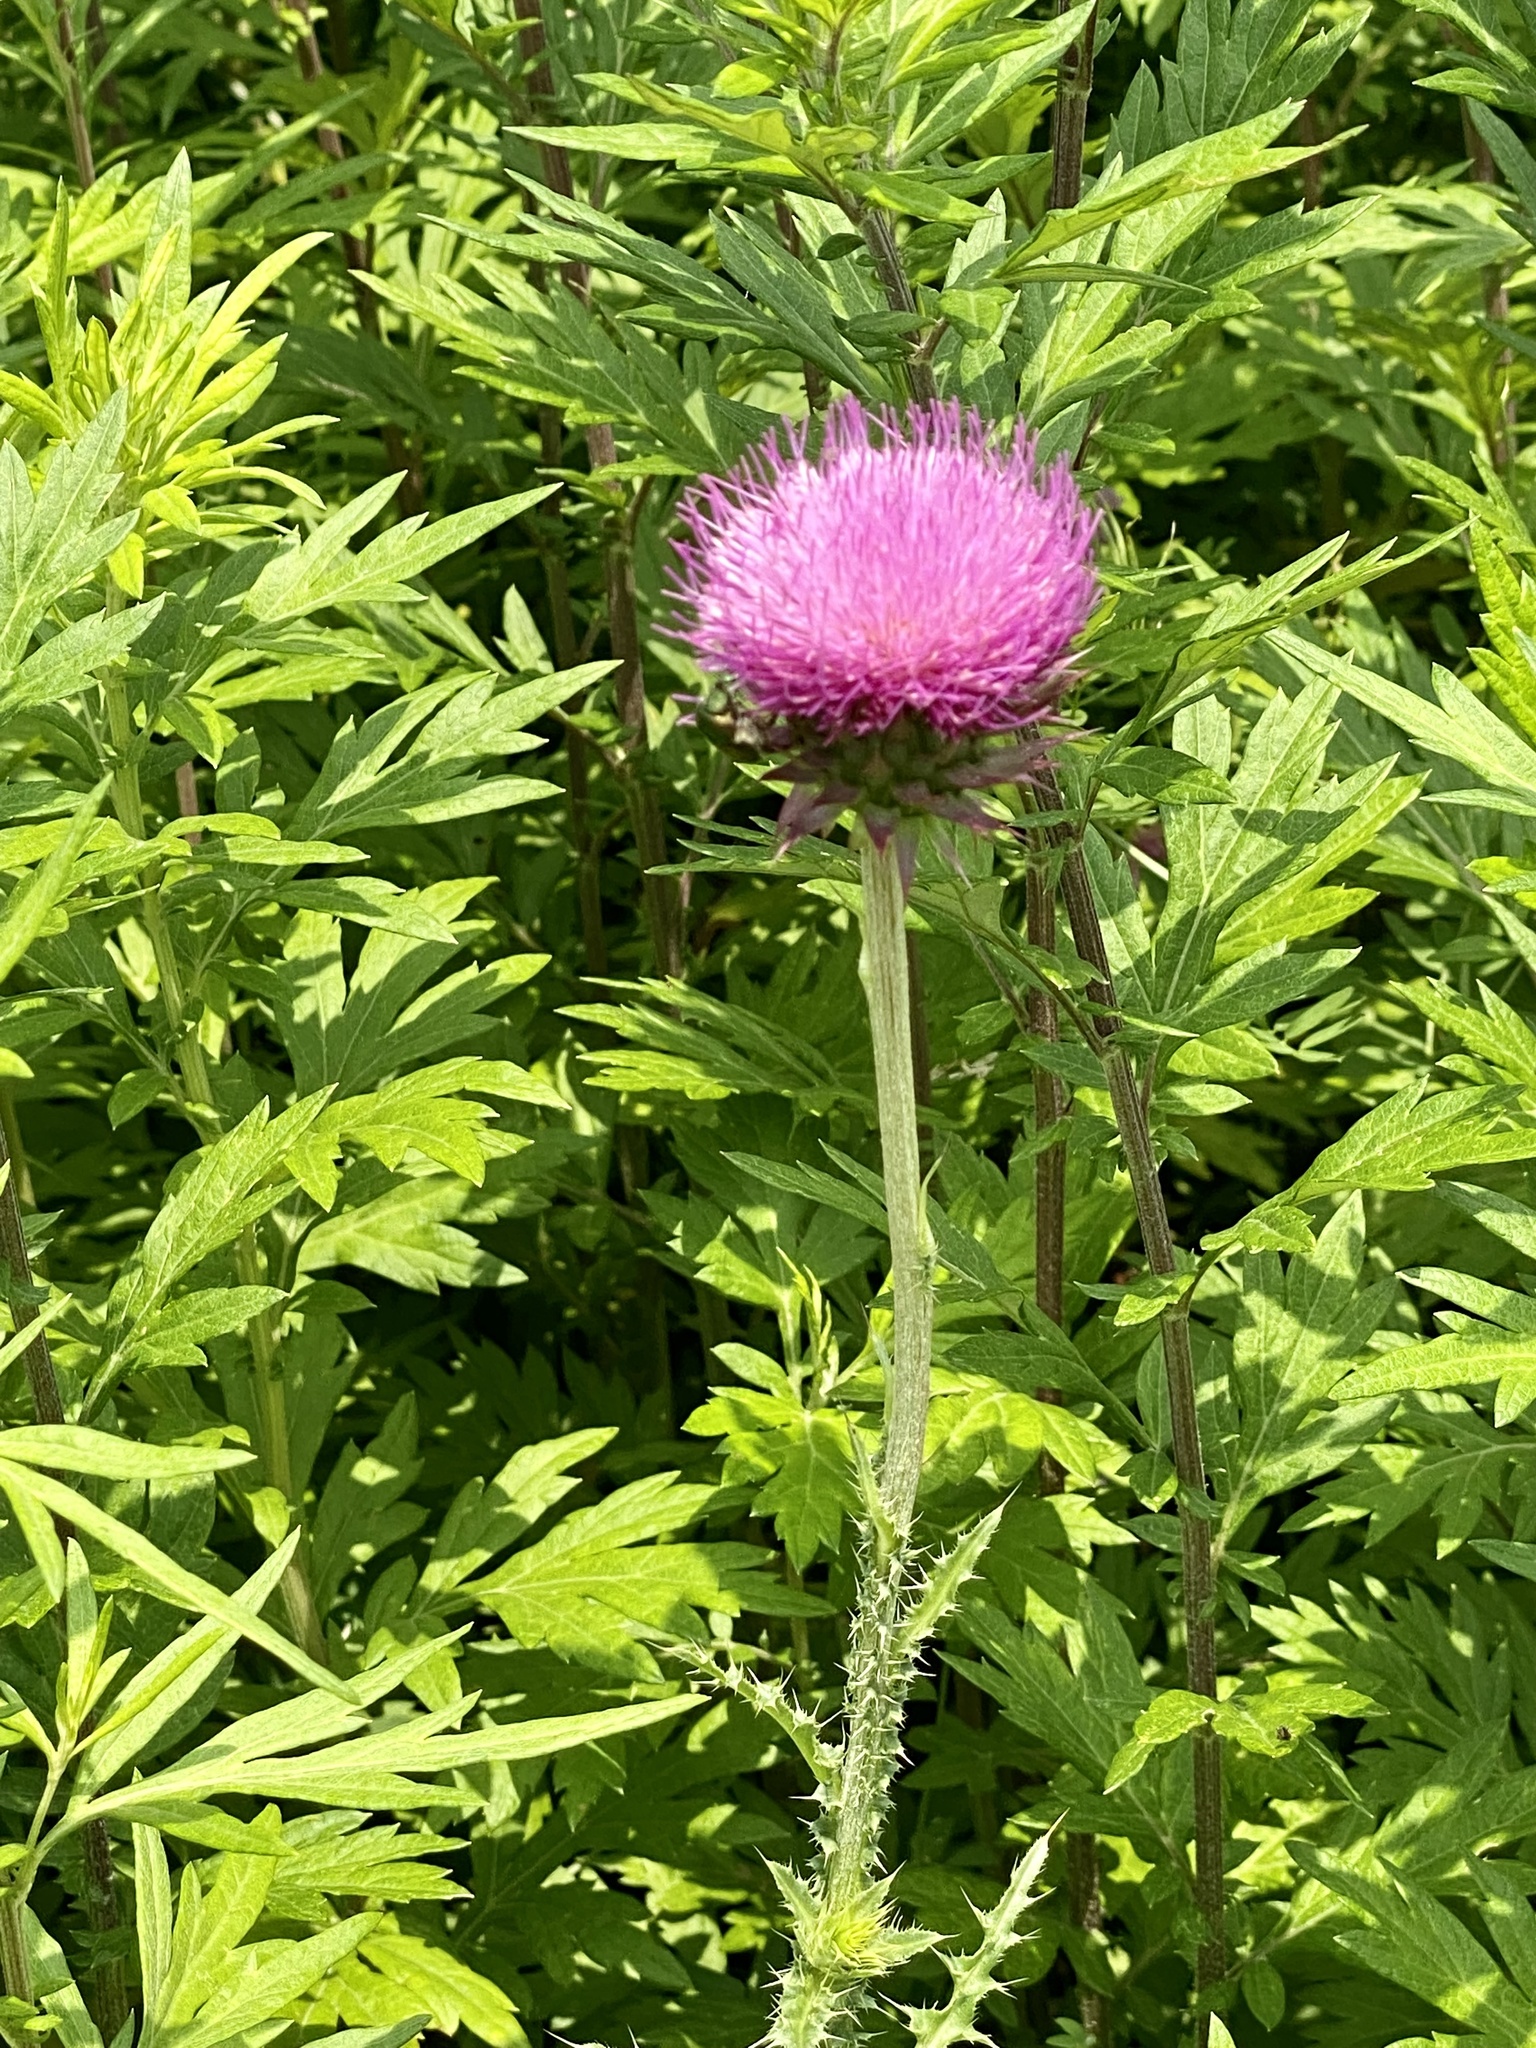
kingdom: Plantae
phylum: Tracheophyta
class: Magnoliopsida
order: Asterales
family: Asteraceae
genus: Carduus
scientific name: Carduus nutans
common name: Musk thistle
